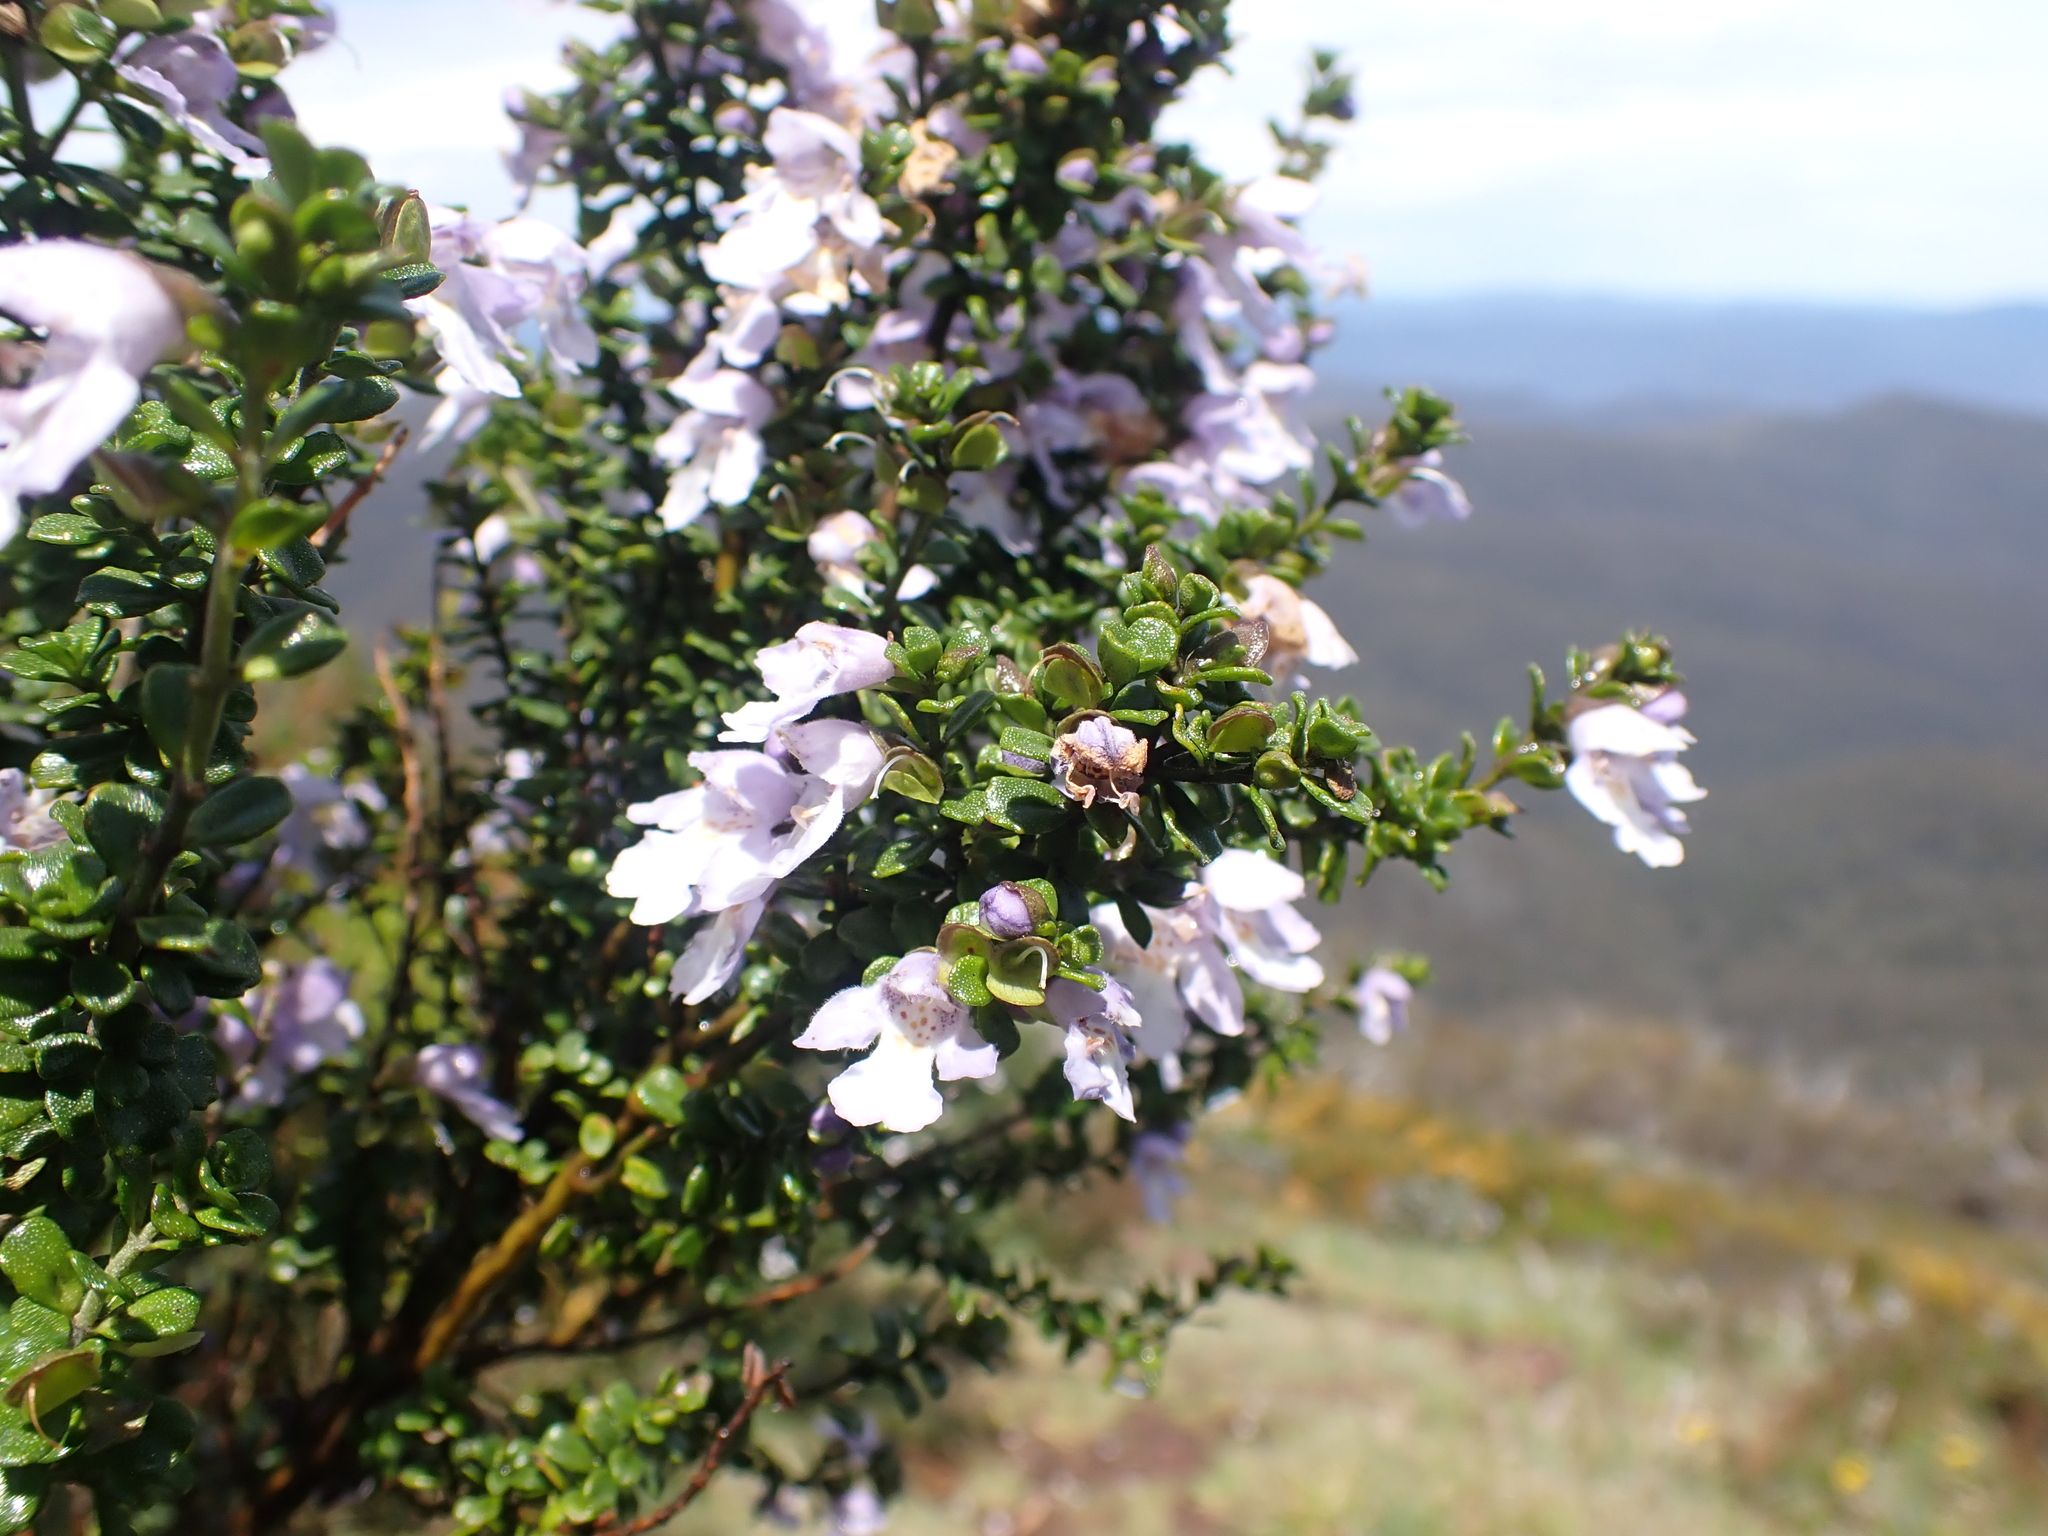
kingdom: Plantae
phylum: Tracheophyta
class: Magnoliopsida
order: Lamiales
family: Lamiaceae
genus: Prostanthera
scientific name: Prostanthera cuneata
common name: Alpine mintbush
